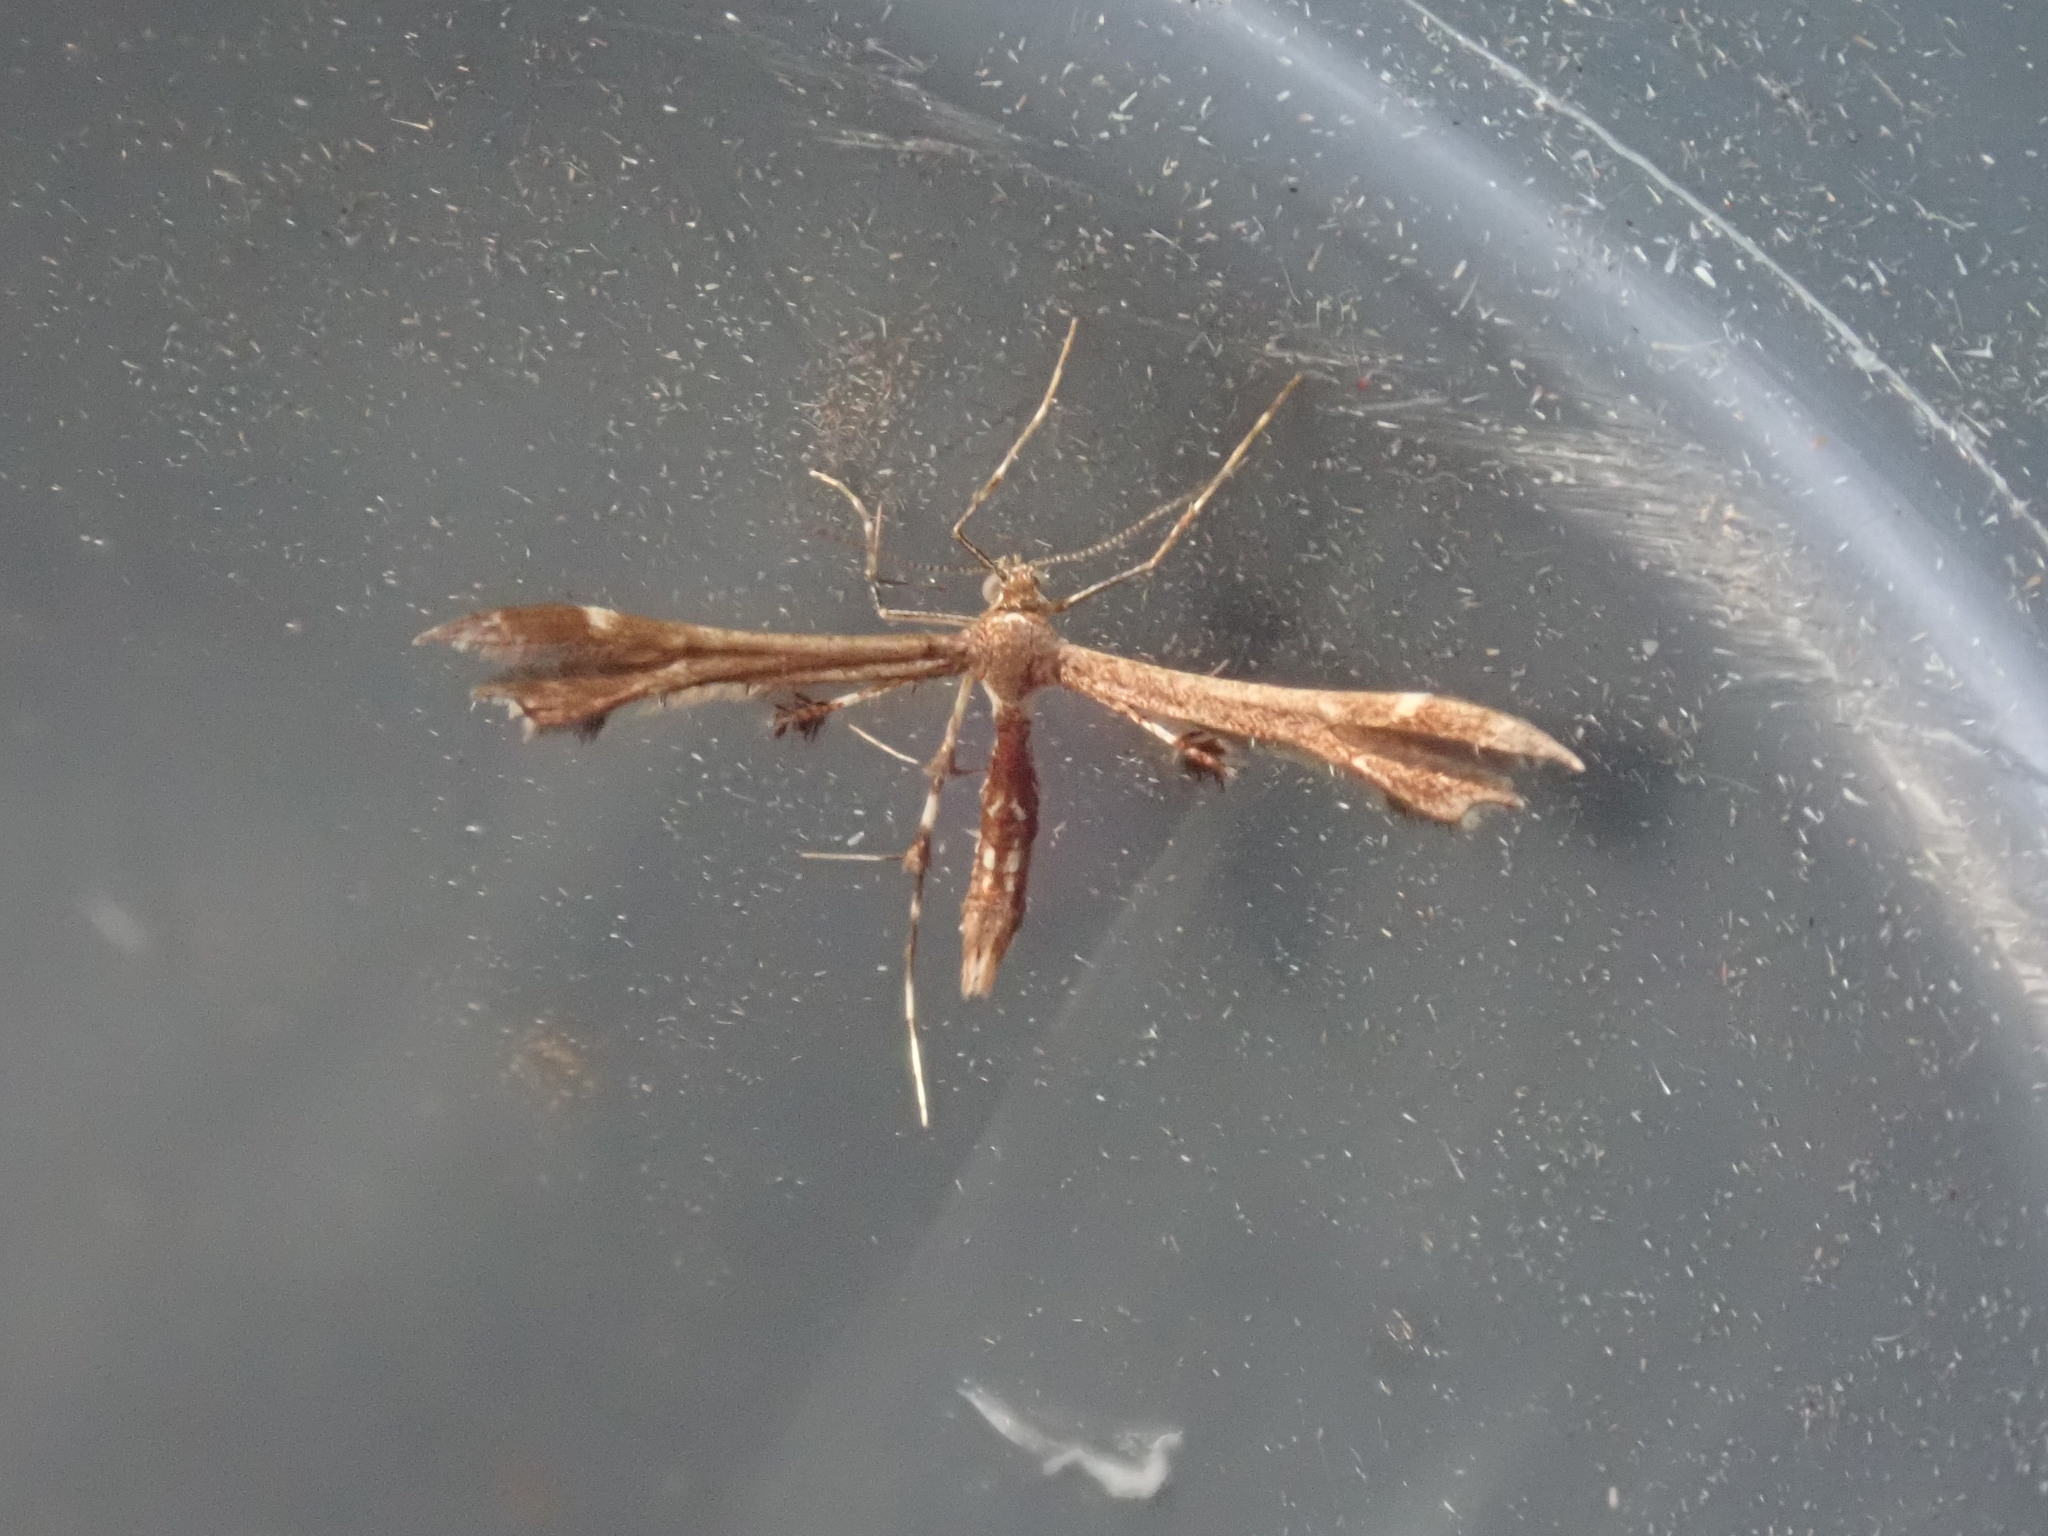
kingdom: Animalia
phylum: Arthropoda
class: Insecta
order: Lepidoptera
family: Pterophoridae
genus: Geina
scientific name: Geina
